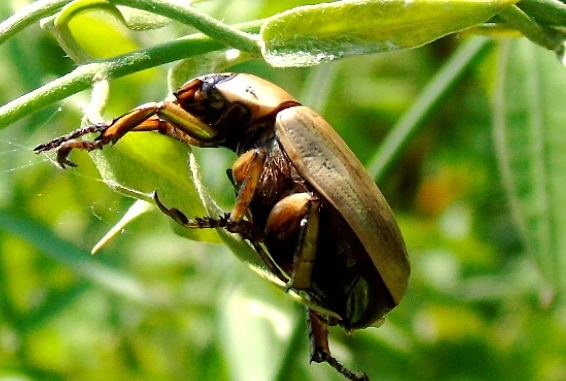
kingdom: Animalia
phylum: Arthropoda
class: Insecta
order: Coleoptera
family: Scarabaeidae
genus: Pelidnota
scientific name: Pelidnota
